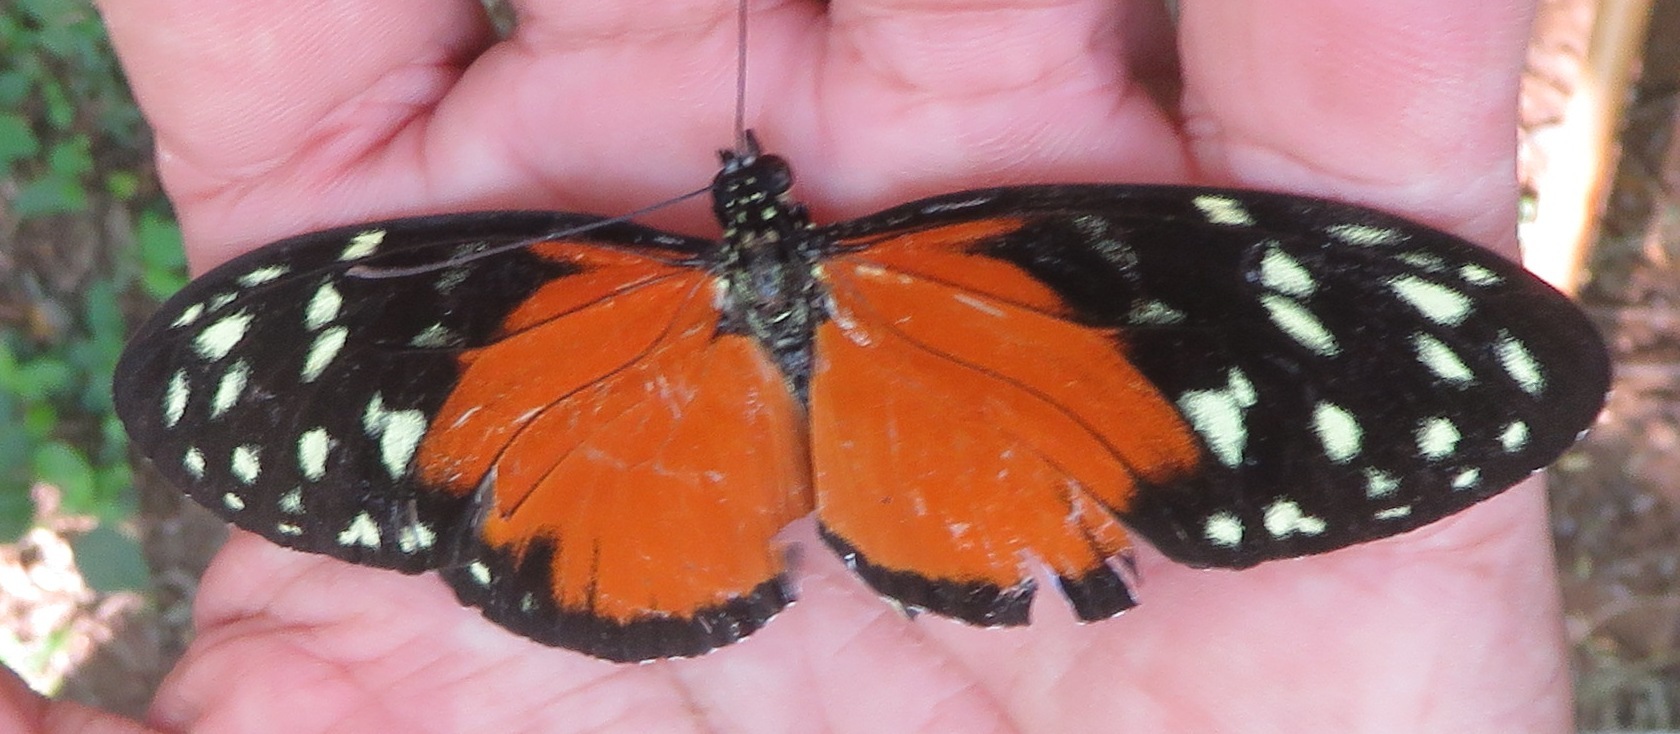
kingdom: Animalia
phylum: Arthropoda
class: Insecta
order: Lepidoptera
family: Nymphalidae
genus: Heliconius
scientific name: Heliconius hecale
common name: Tiger longwing
